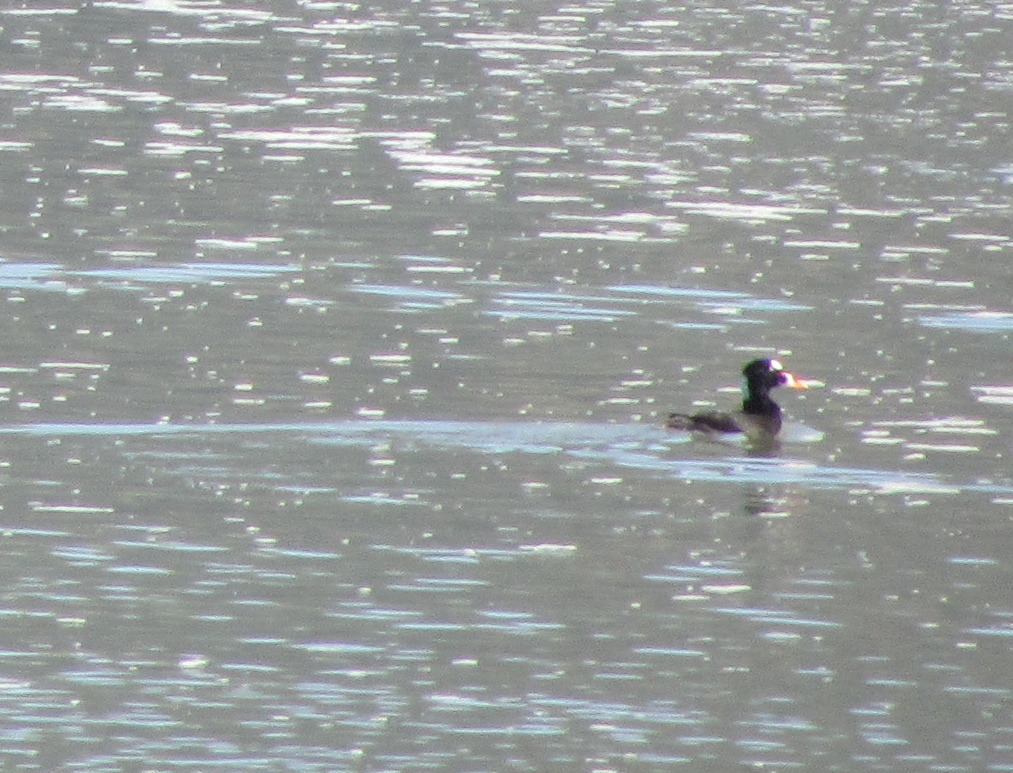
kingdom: Animalia
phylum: Chordata
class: Aves
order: Anseriformes
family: Anatidae
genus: Melanitta
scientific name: Melanitta perspicillata
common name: Surf scoter
